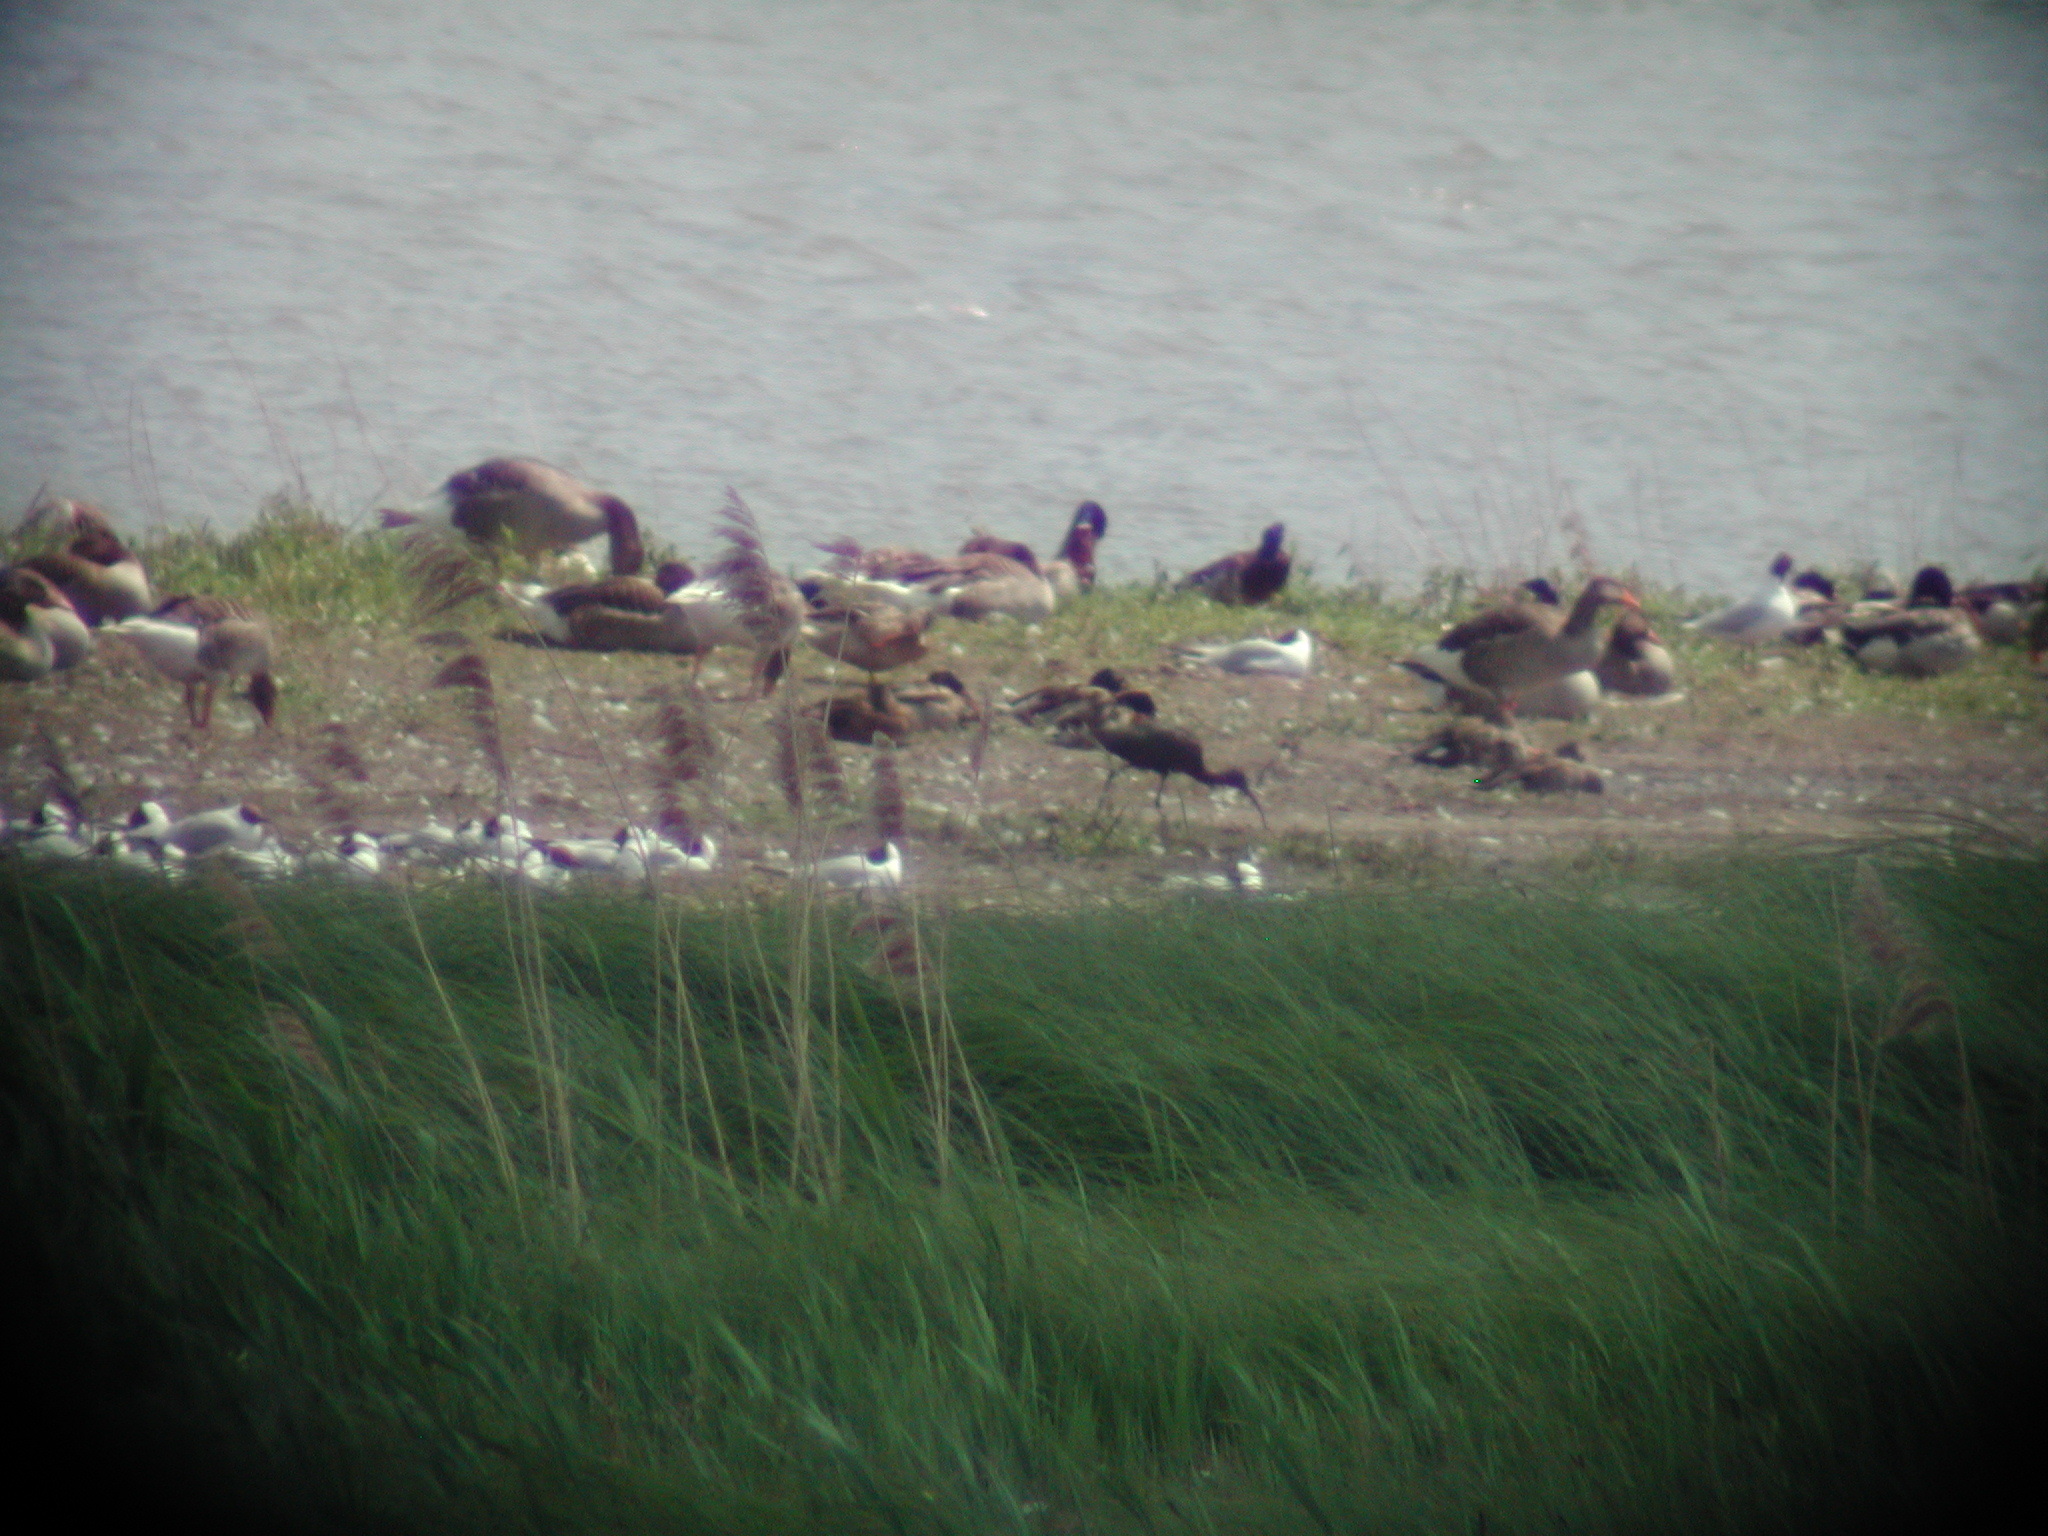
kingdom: Animalia
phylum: Chordata
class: Aves
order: Pelecaniformes
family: Threskiornithidae
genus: Plegadis
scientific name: Plegadis falcinellus
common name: Glossy ibis
